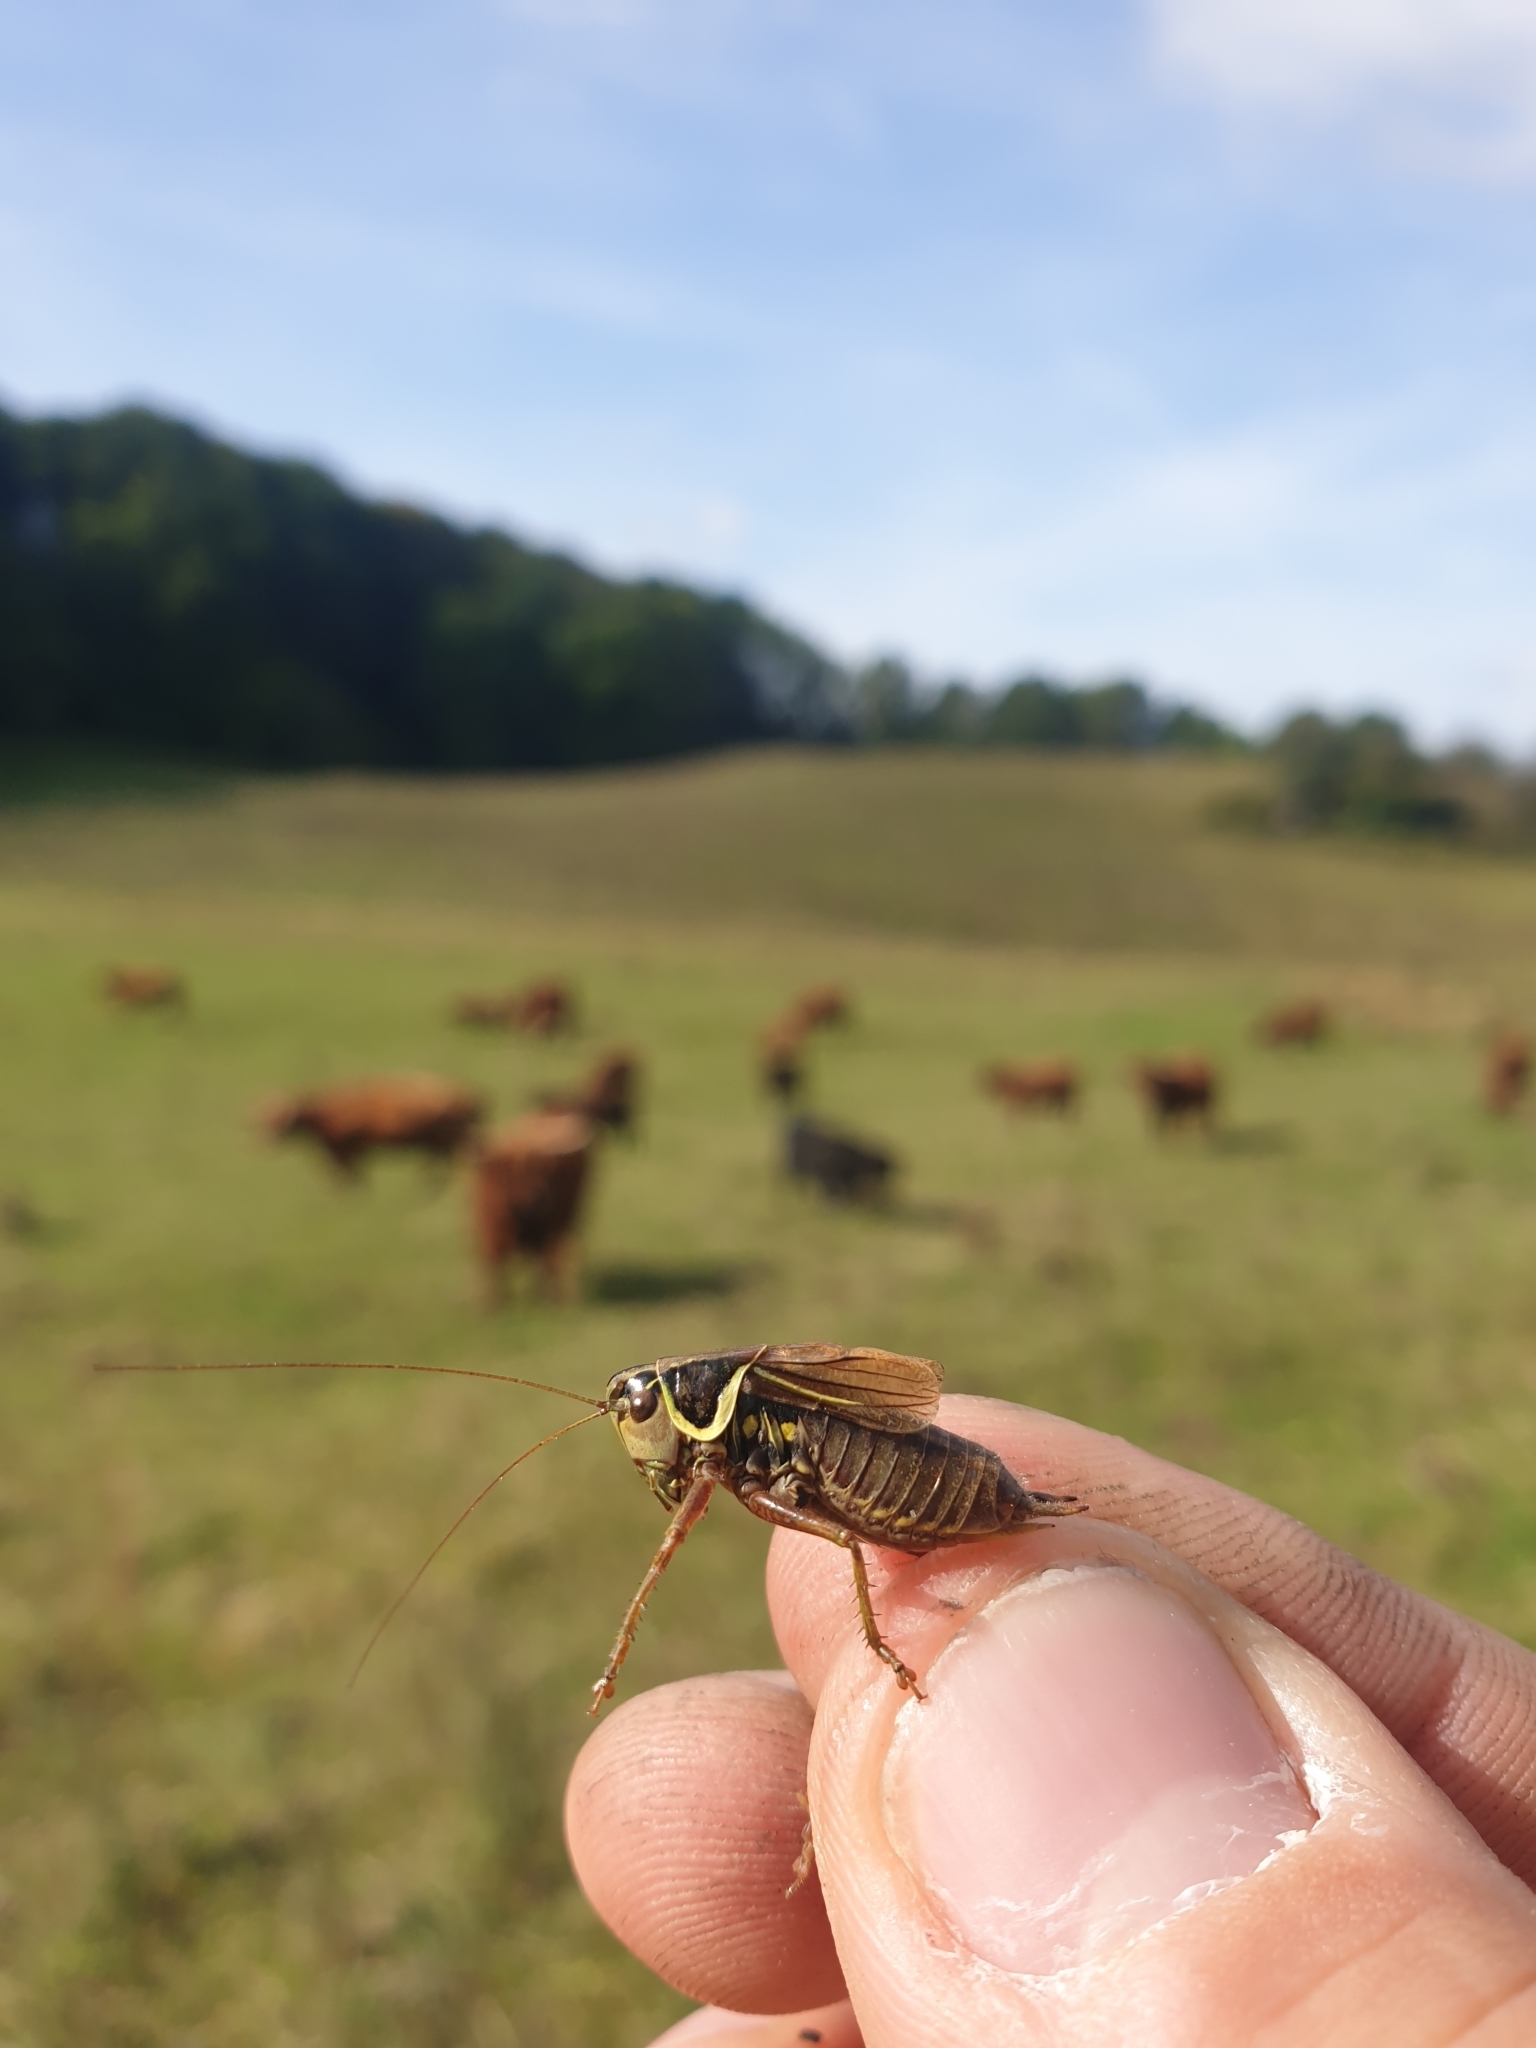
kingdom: Animalia
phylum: Arthropoda
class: Insecta
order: Orthoptera
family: Tettigoniidae
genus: Roeseliana
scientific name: Roeseliana roeselii
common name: Roesel's bush cricket
